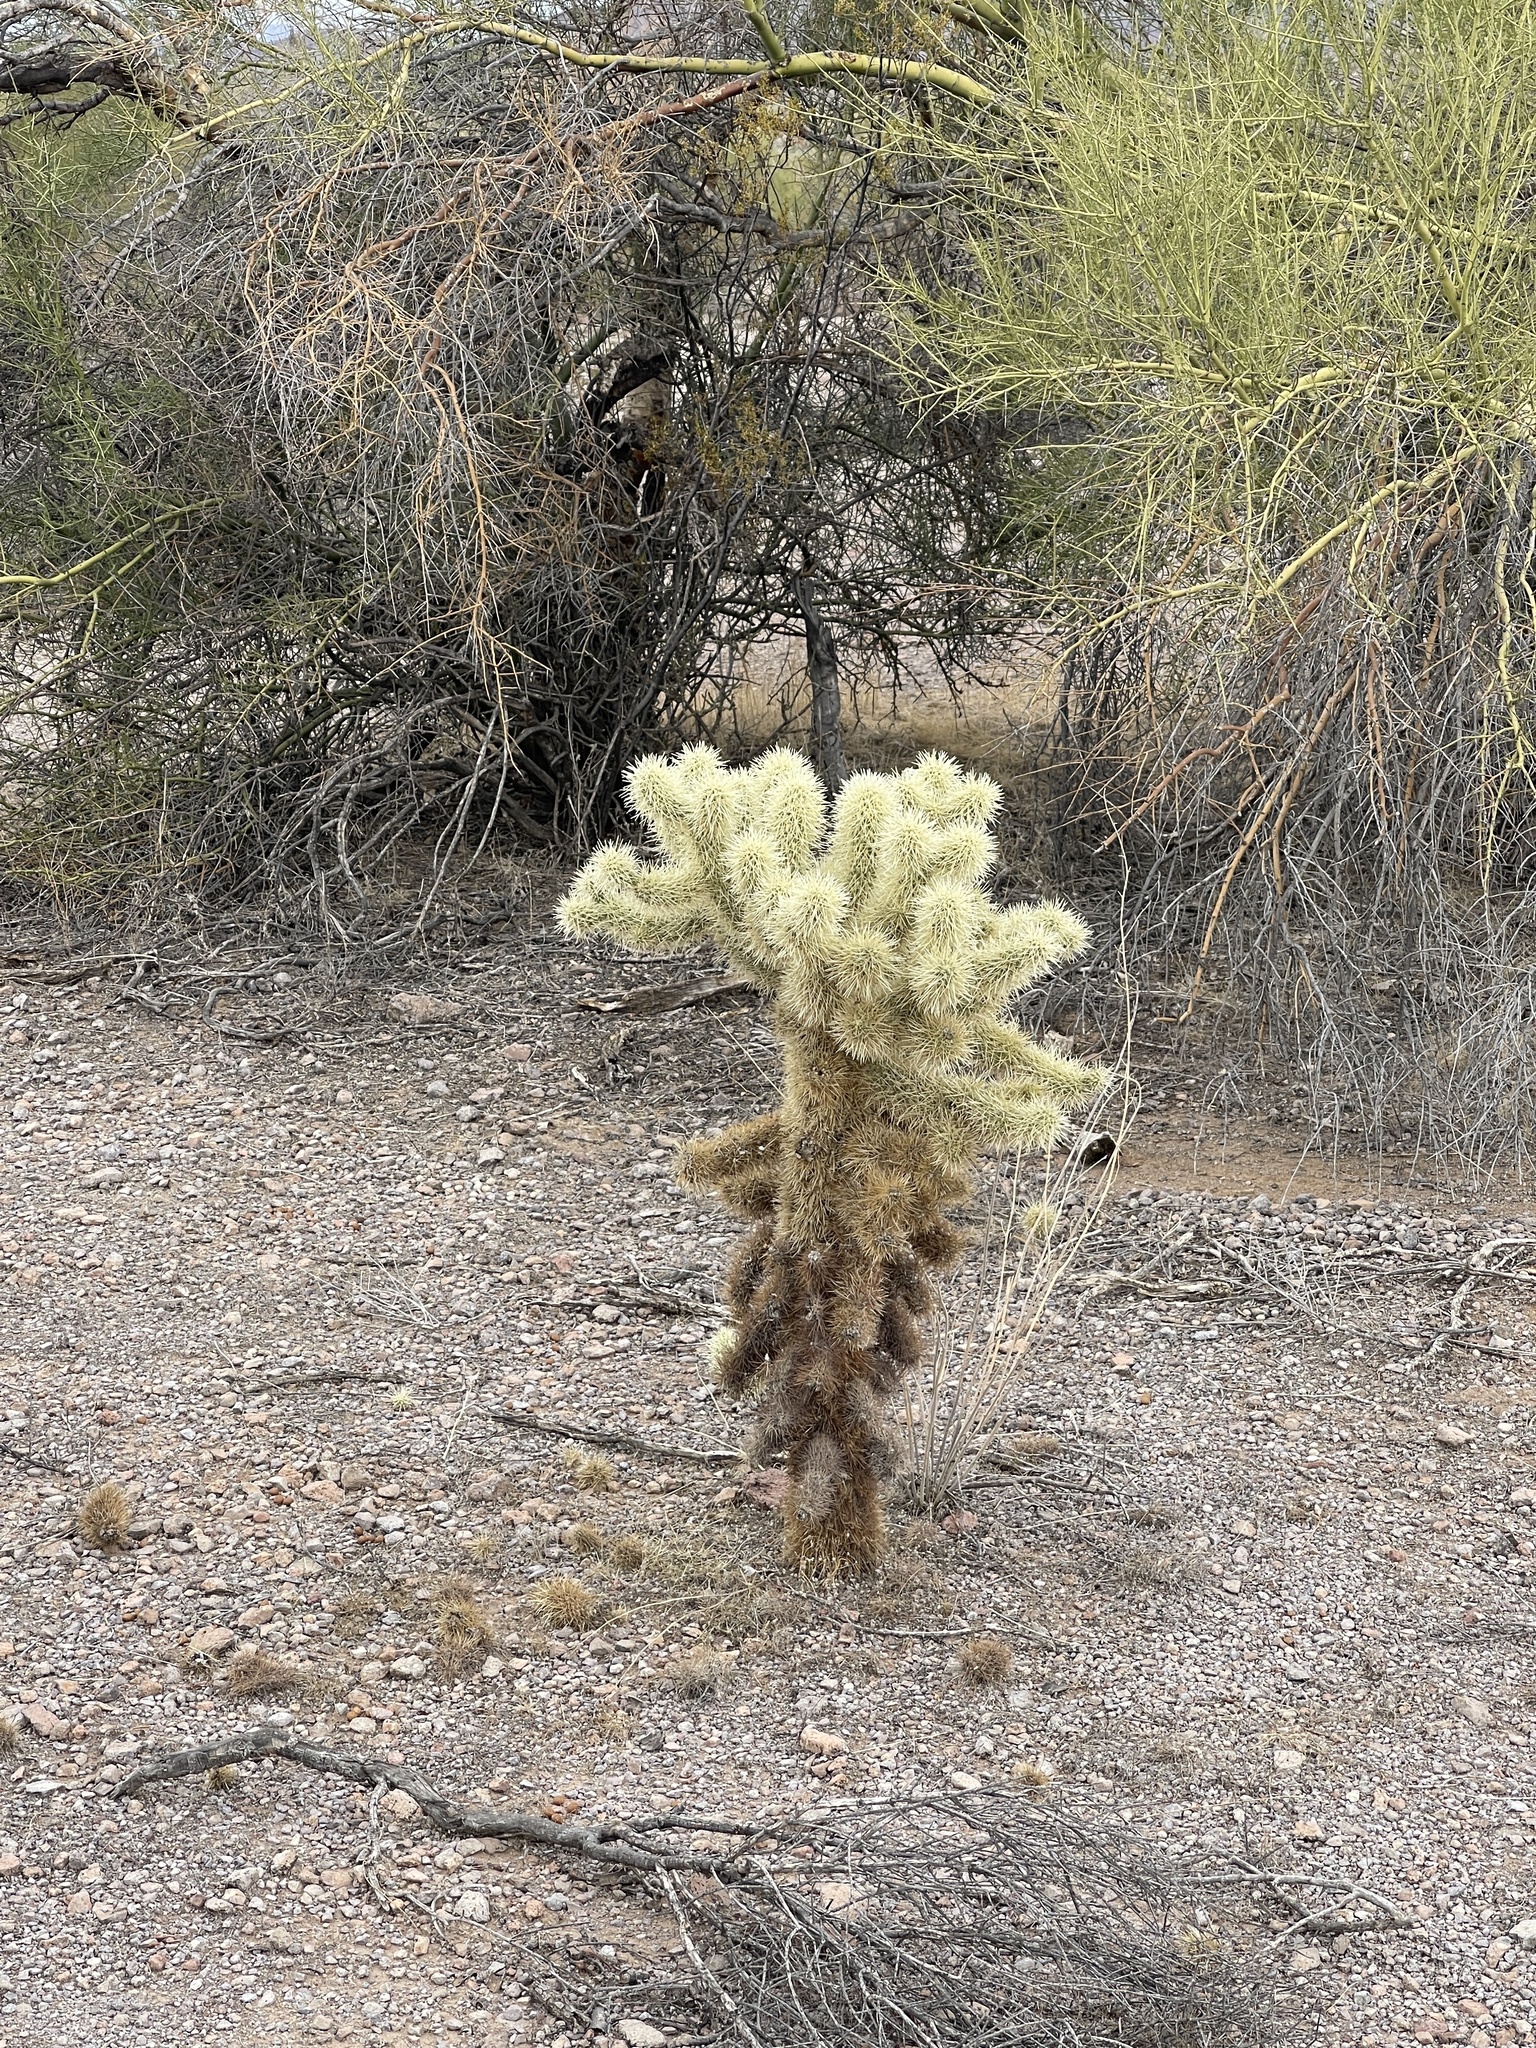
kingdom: Plantae
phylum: Tracheophyta
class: Magnoliopsida
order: Caryophyllales
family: Cactaceae
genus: Cylindropuntia
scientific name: Cylindropuntia fosbergii
